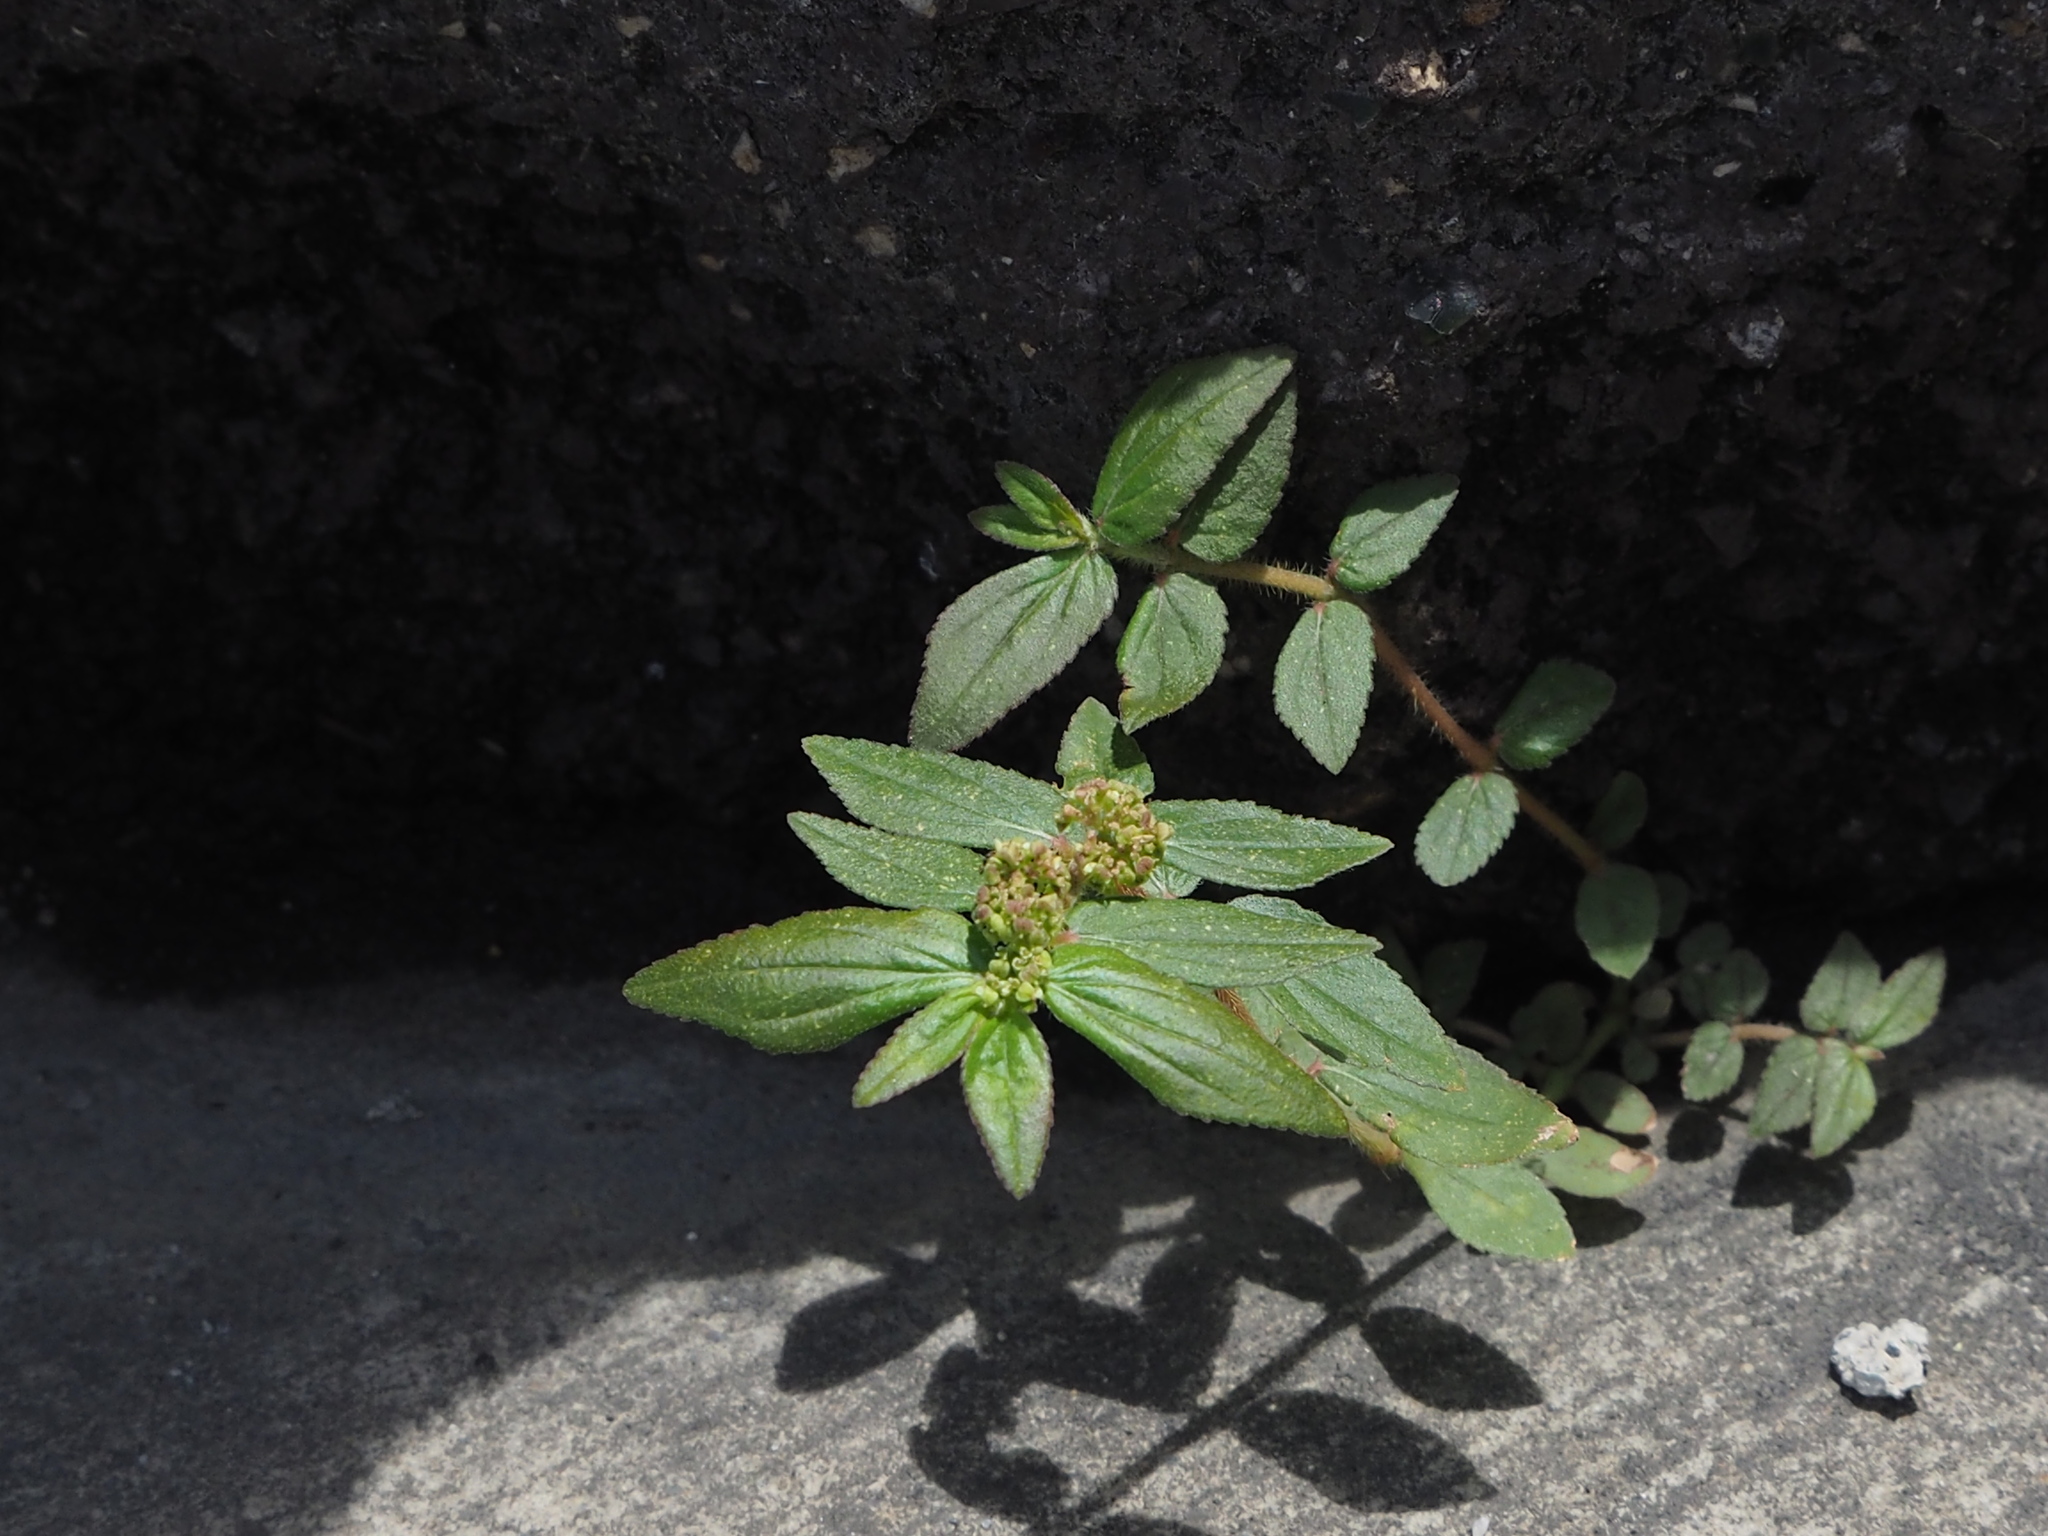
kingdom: Plantae
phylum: Tracheophyta
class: Magnoliopsida
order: Malpighiales
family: Euphorbiaceae
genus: Euphorbia
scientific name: Euphorbia hirta
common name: Pillpod sandmat
